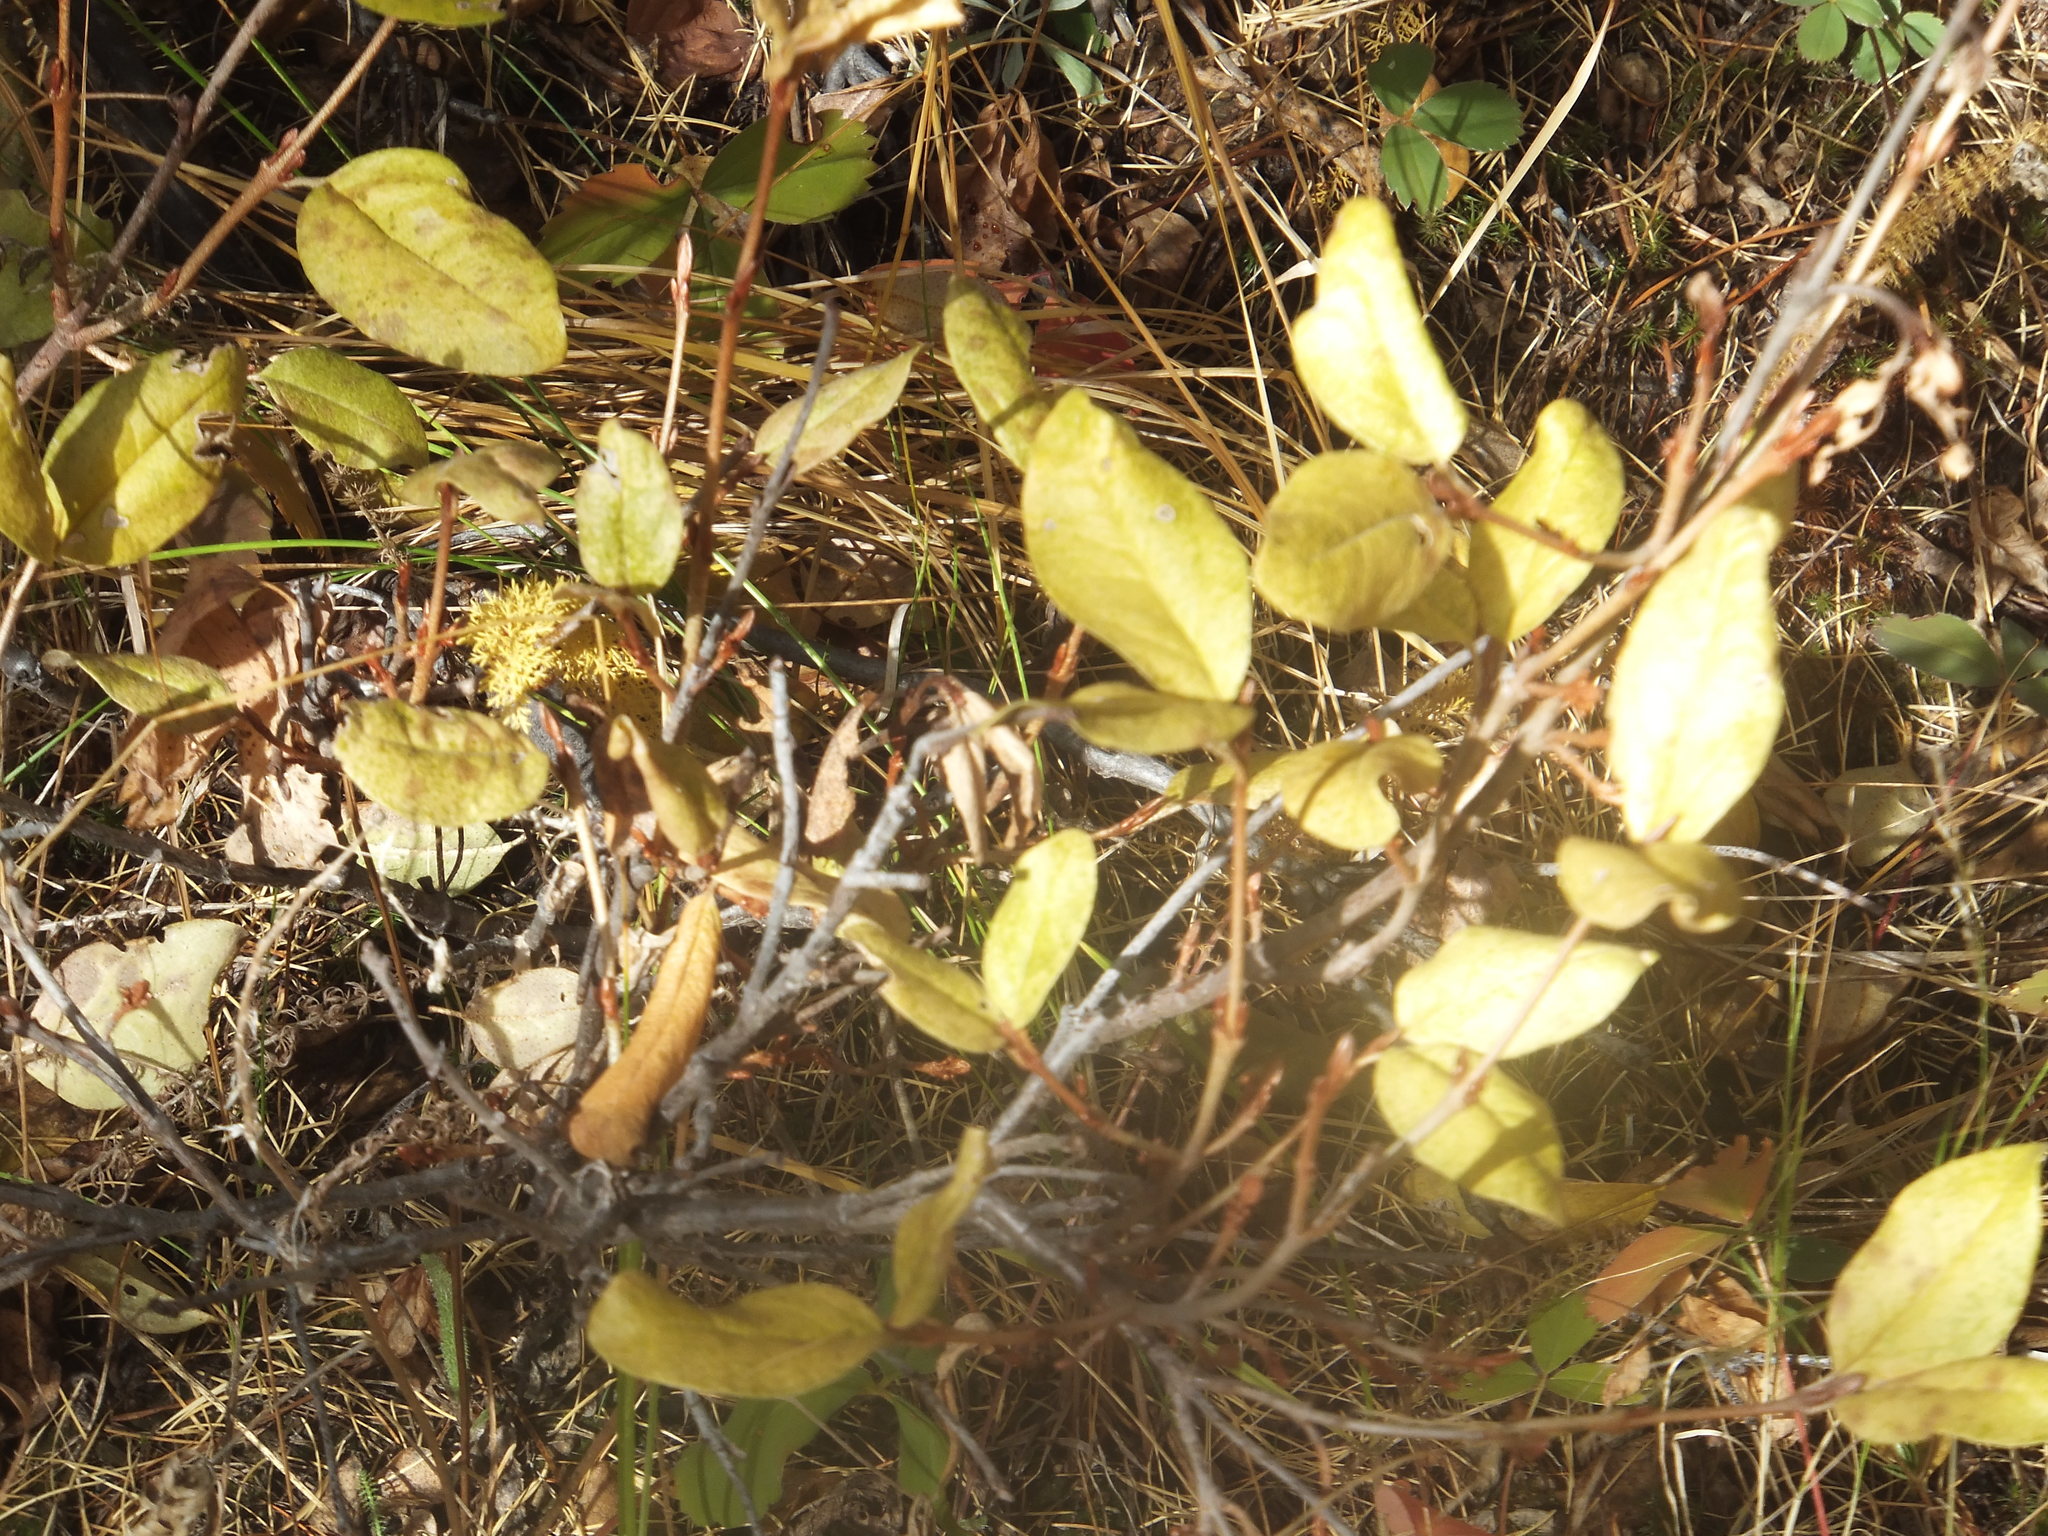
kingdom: Plantae
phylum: Tracheophyta
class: Magnoliopsida
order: Rosales
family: Elaeagnaceae
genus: Shepherdia
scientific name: Shepherdia canadensis
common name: Soapberry
